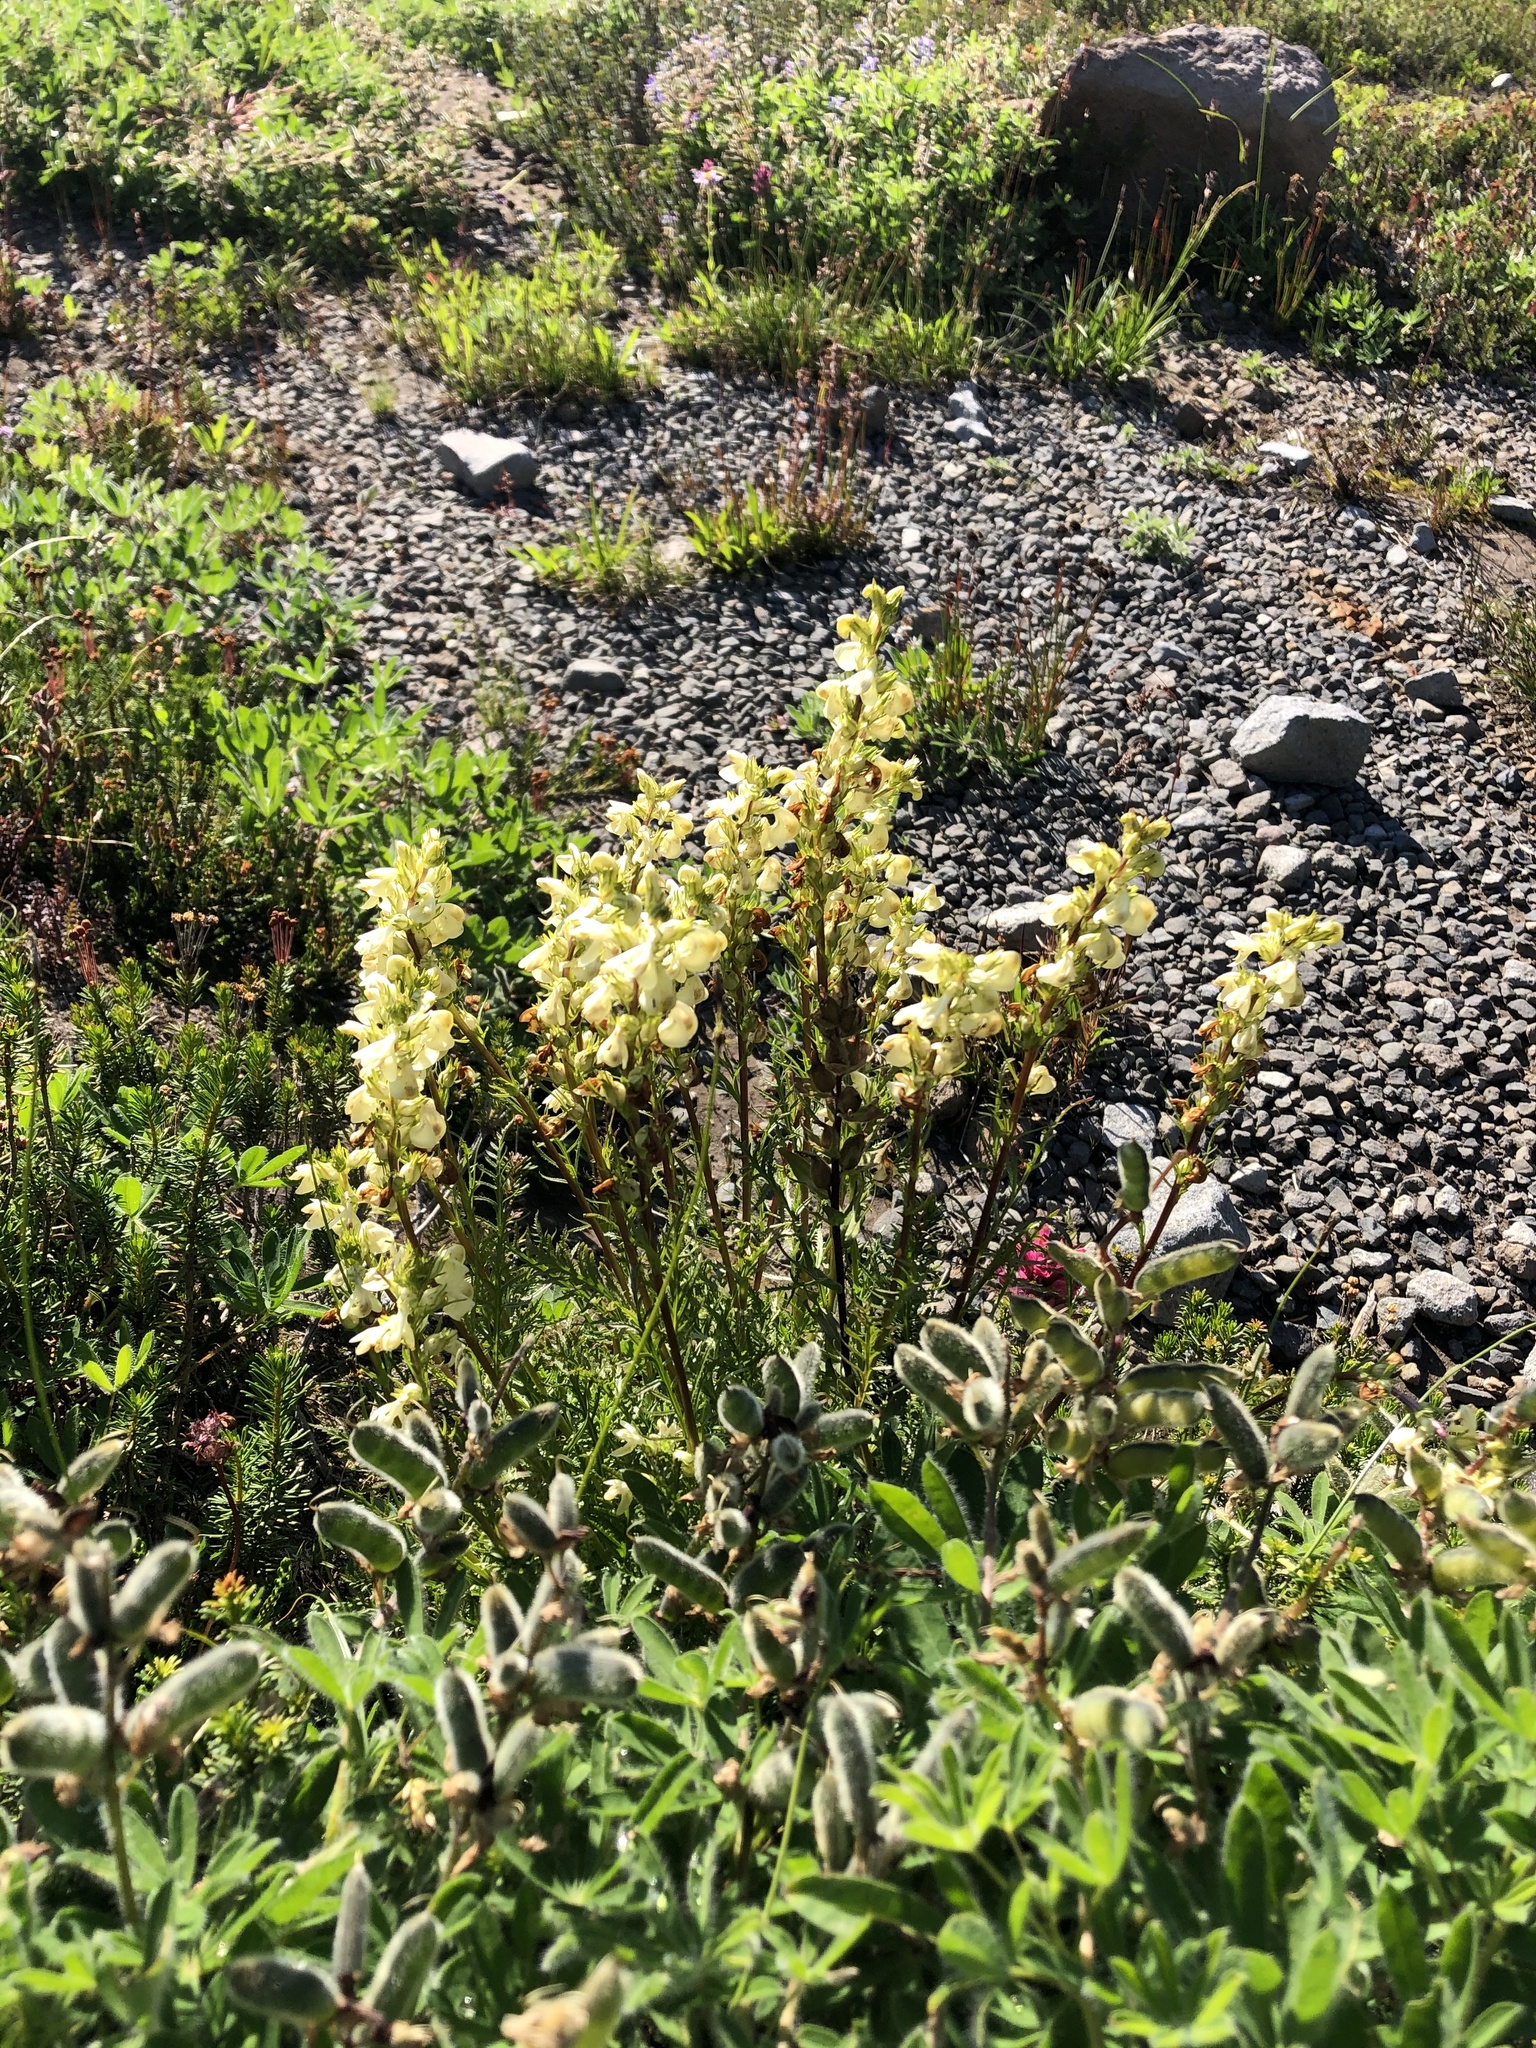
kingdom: Plantae
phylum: Tracheophyta
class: Magnoliopsida
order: Lamiales
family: Orobanchaceae
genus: Pedicularis
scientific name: Pedicularis contorta
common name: Coiled lousewort
